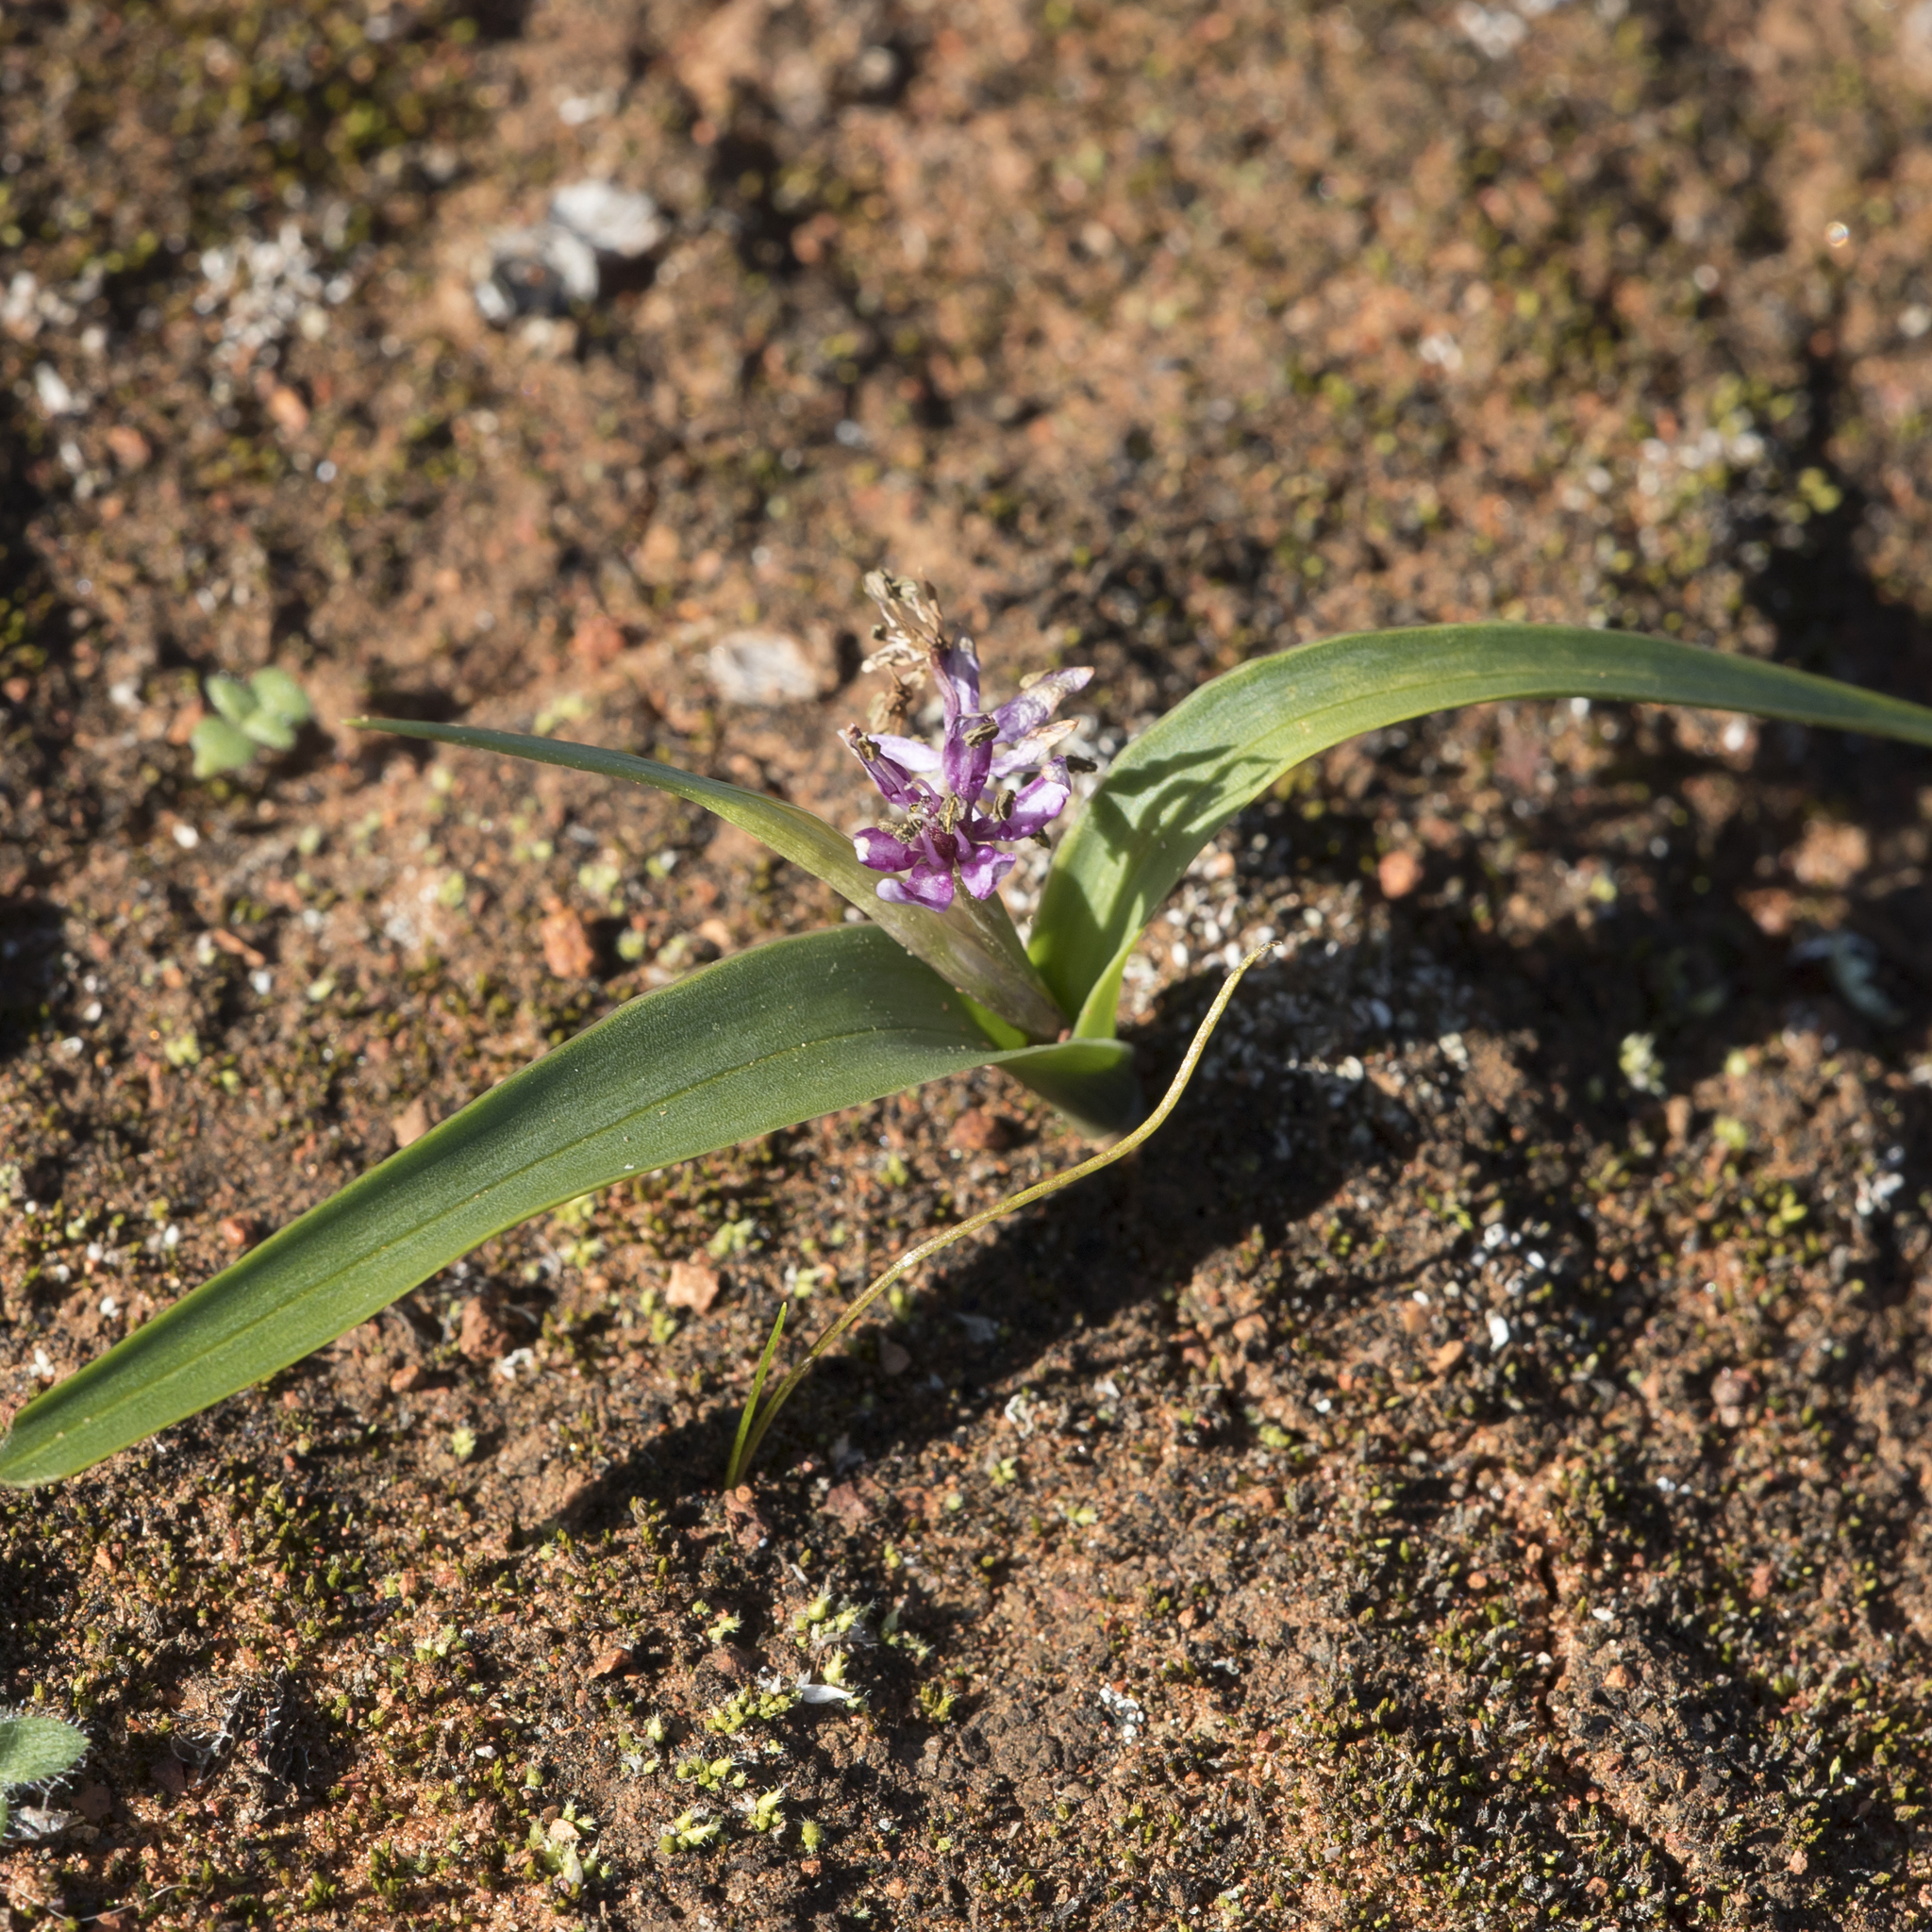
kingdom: Plantae
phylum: Tracheophyta
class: Liliopsida
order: Liliales
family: Colchicaceae
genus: Wurmbea
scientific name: Wurmbea australis
